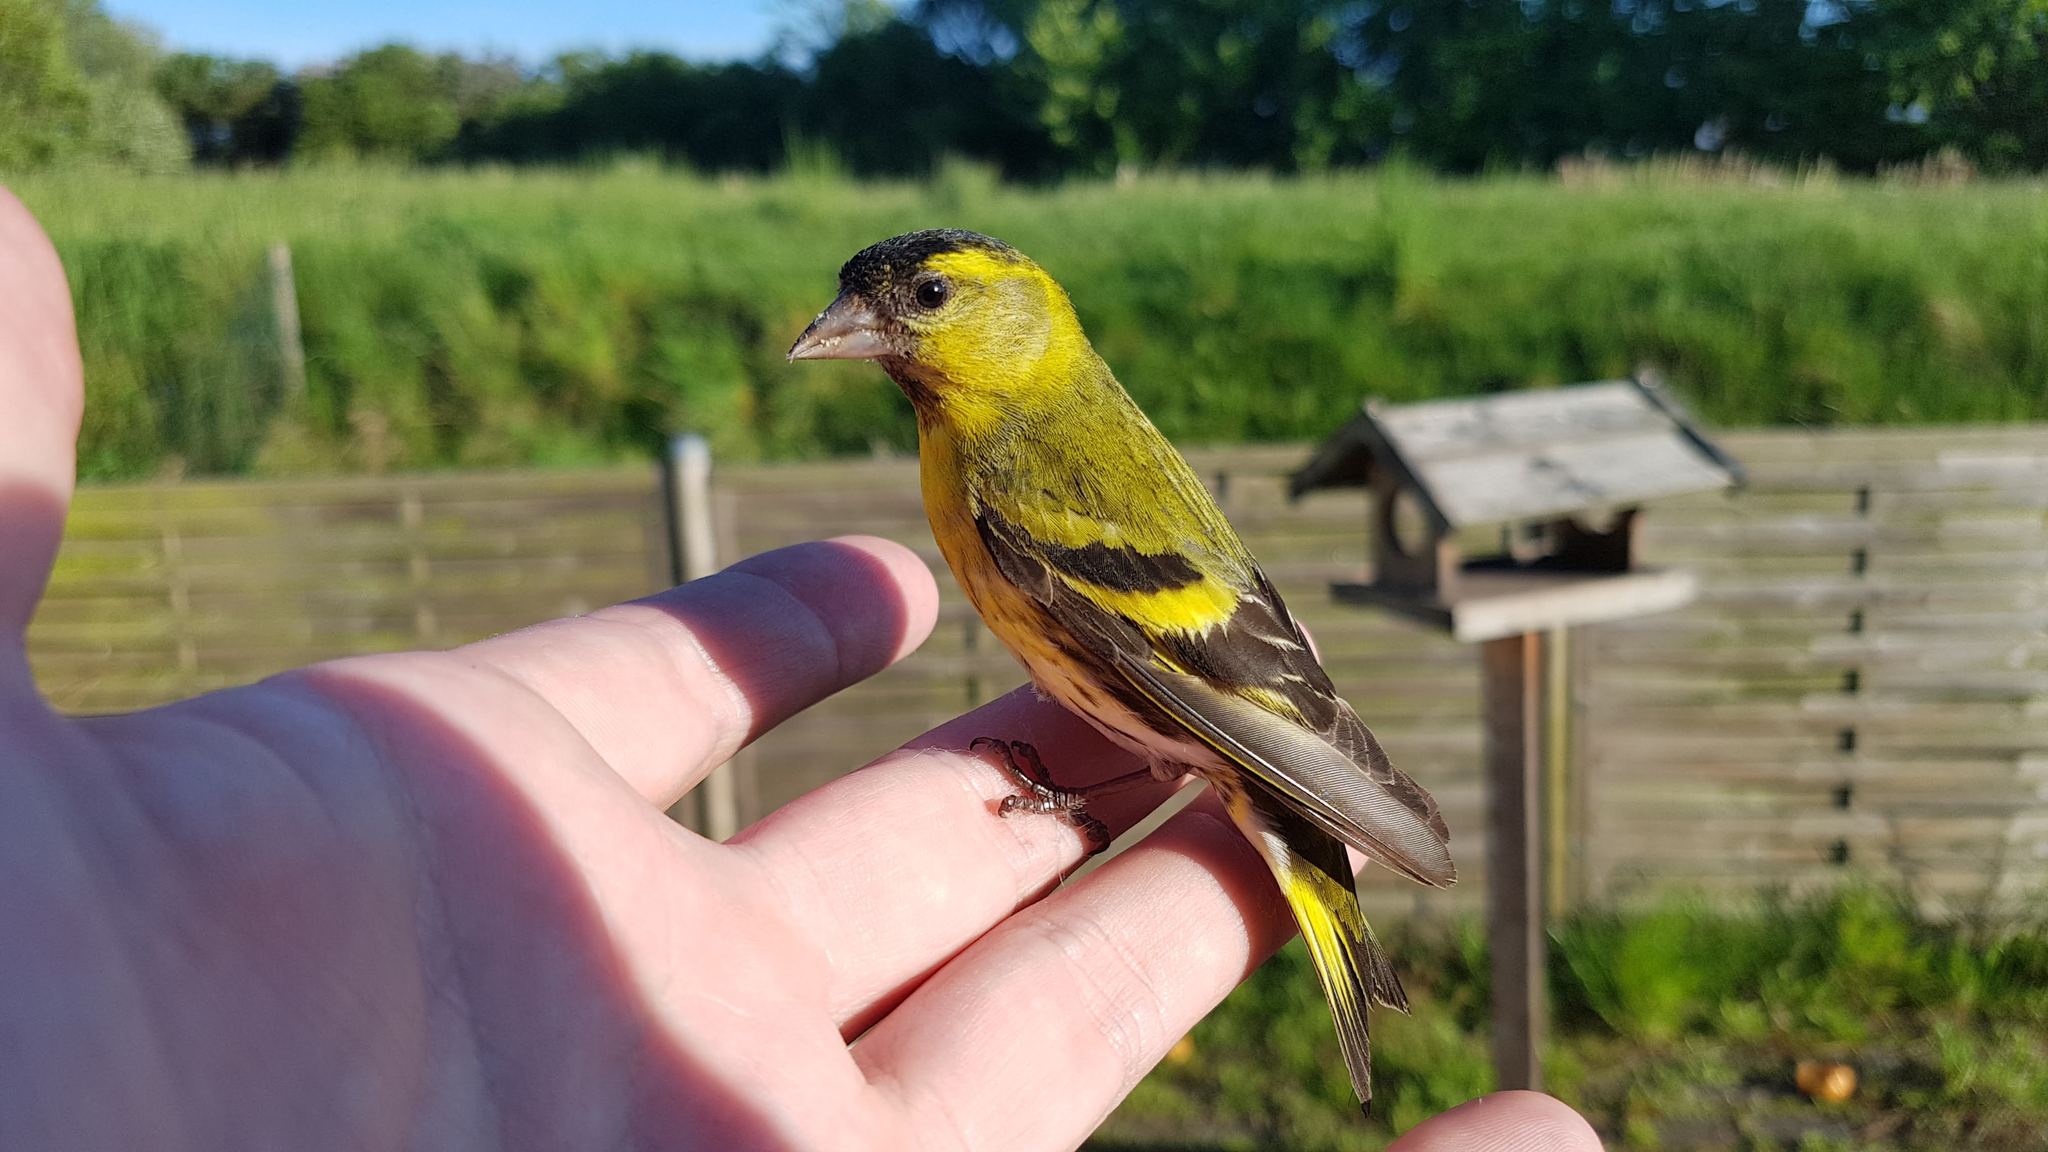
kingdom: Animalia
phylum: Chordata
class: Aves
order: Passeriformes
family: Fringillidae
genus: Spinus
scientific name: Spinus spinus
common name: Eurasian siskin
